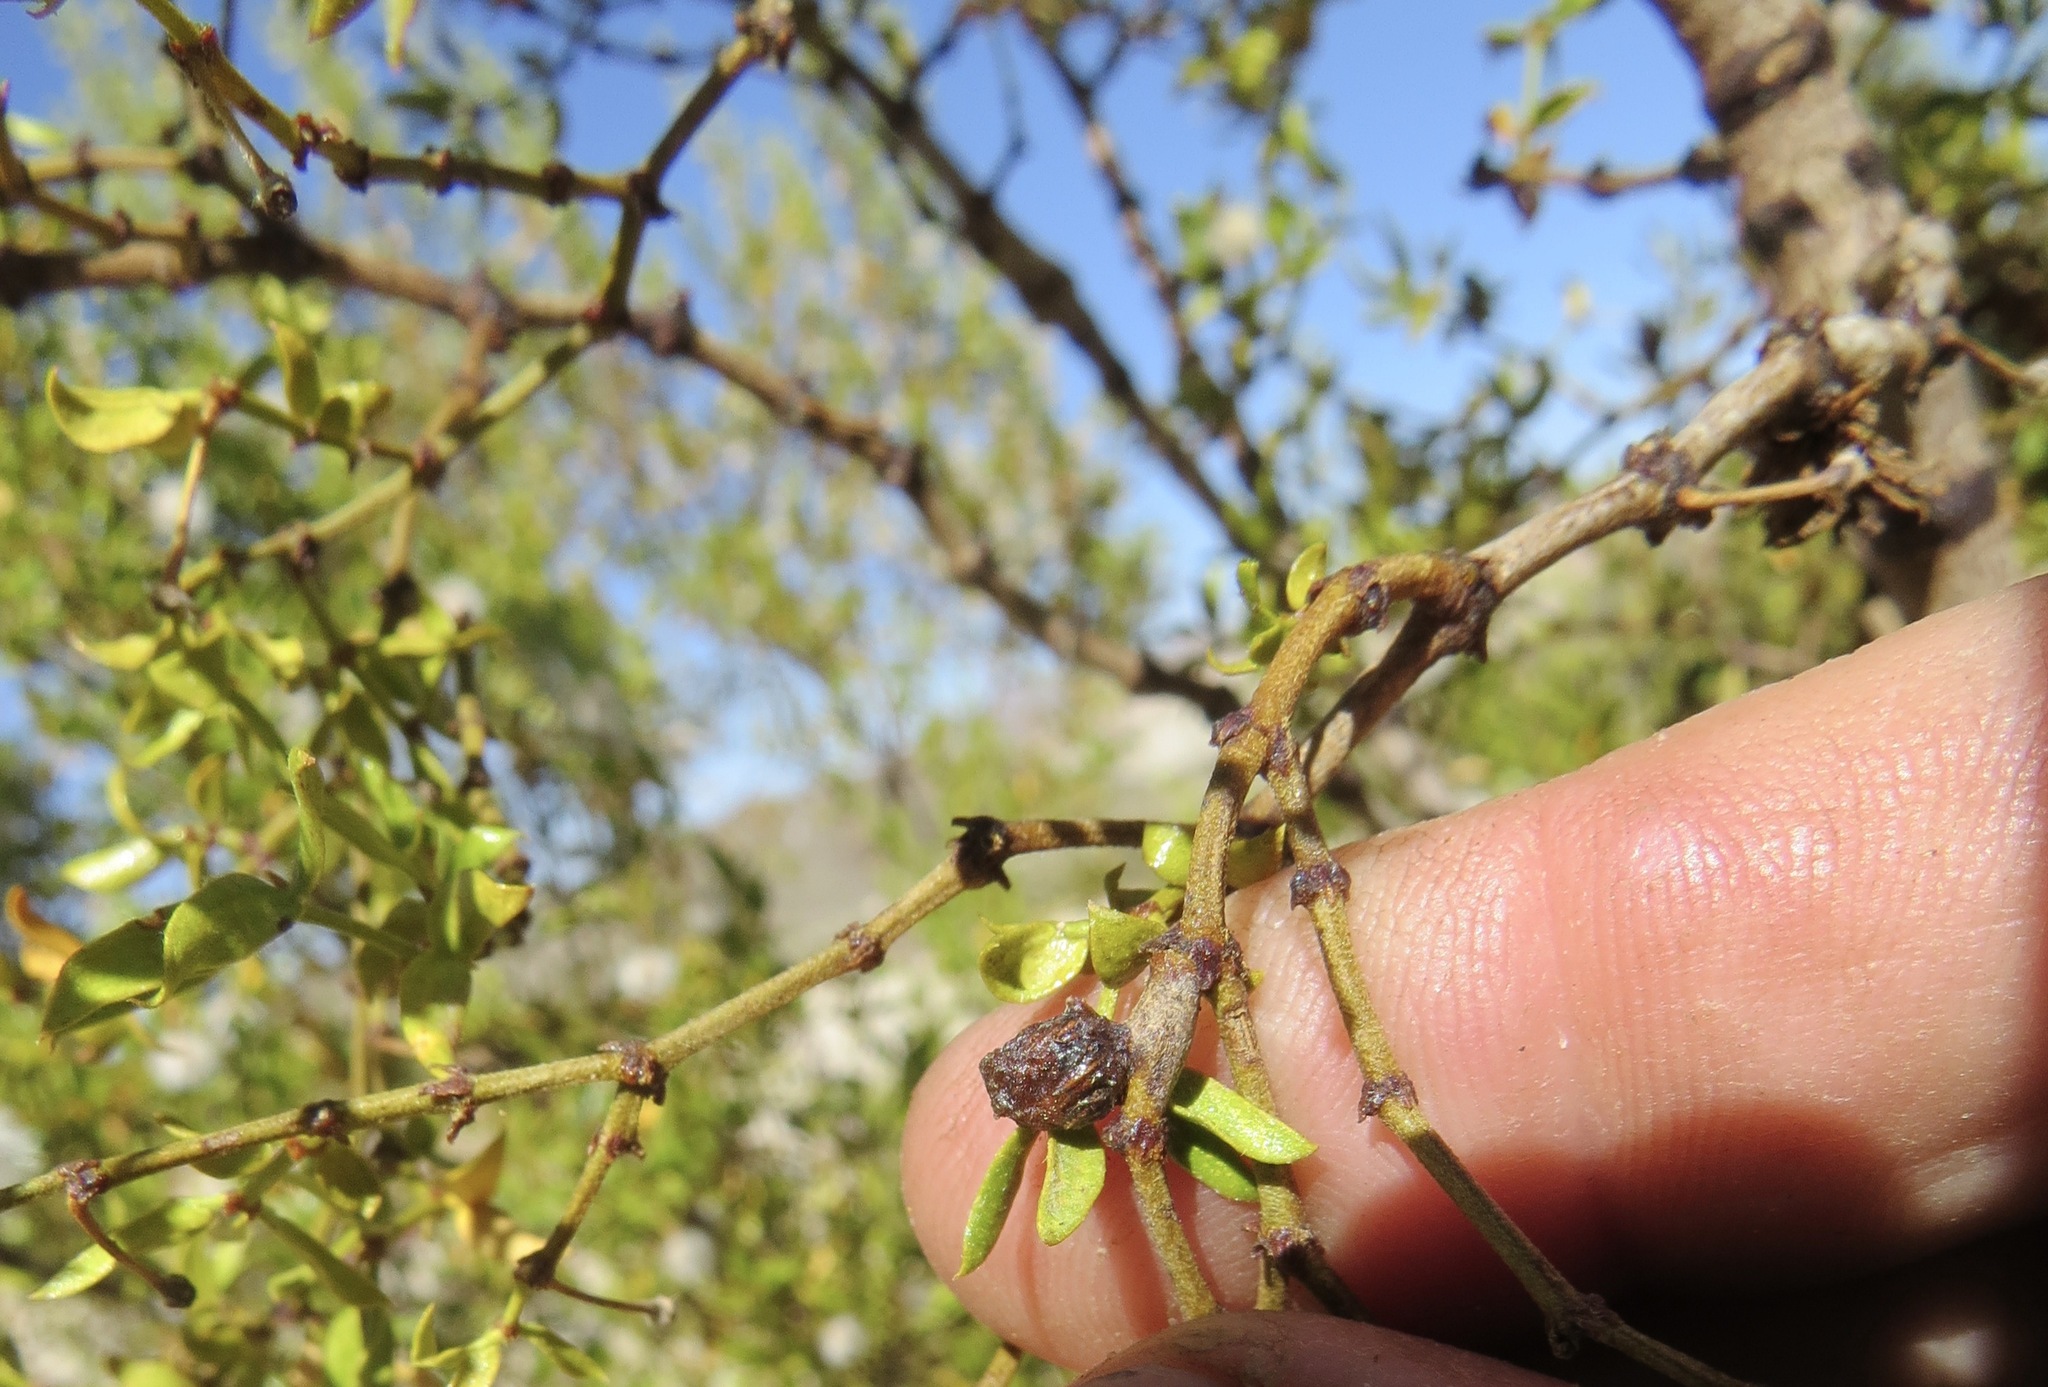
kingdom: Animalia
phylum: Arthropoda
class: Insecta
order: Diptera
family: Cecidomyiidae
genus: Asphondylia
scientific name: Asphondylia resinosa
